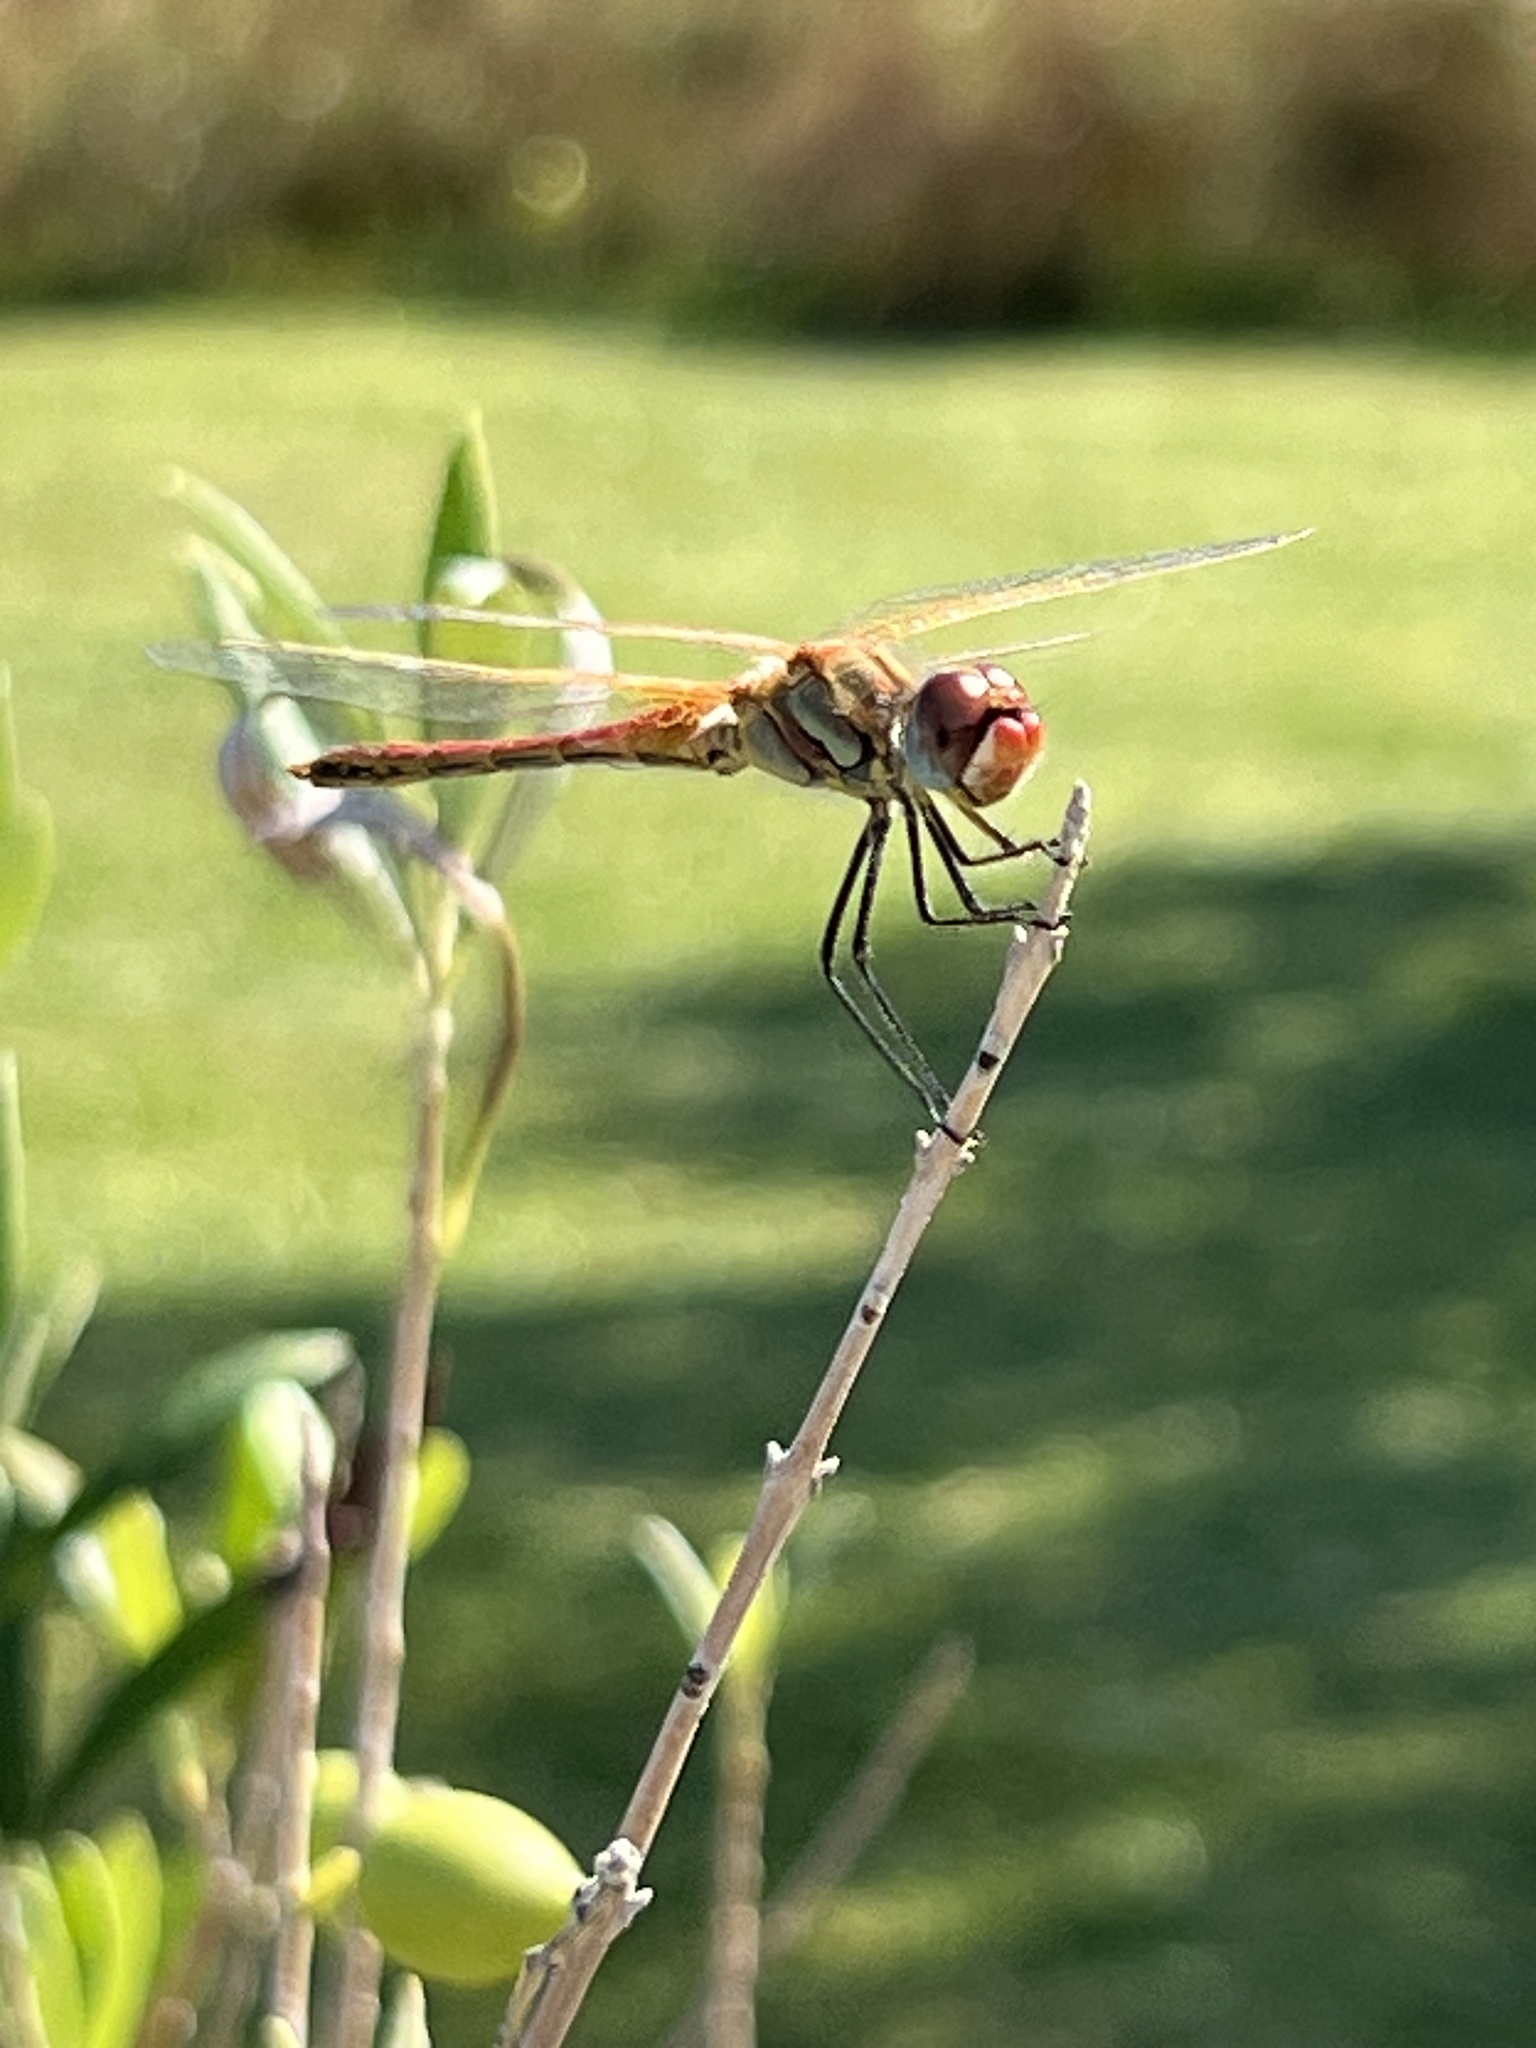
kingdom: Animalia
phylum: Arthropoda
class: Insecta
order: Odonata
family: Libellulidae
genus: Sympetrum
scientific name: Sympetrum fonscolombii
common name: Red-veined darter
